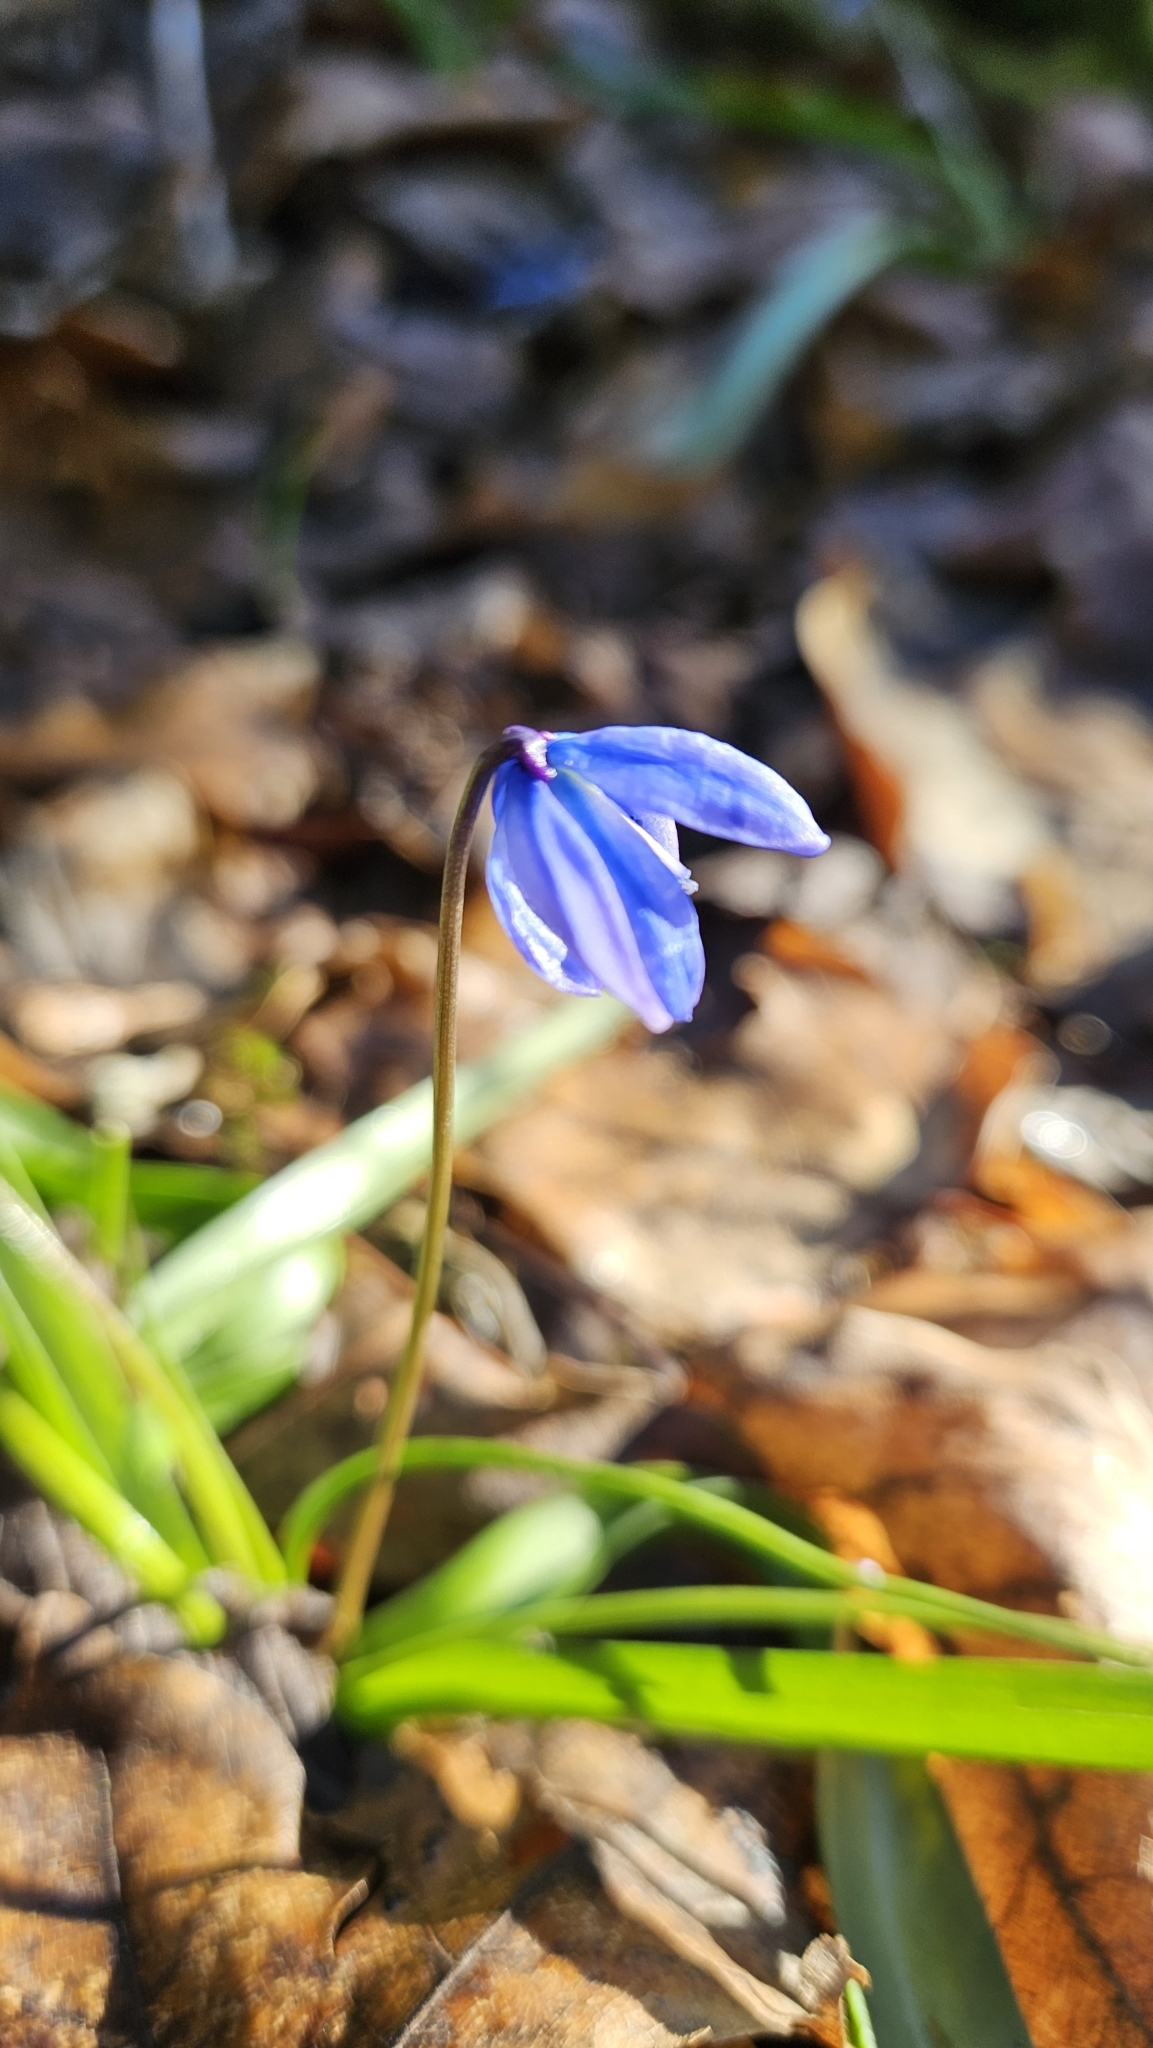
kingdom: Plantae
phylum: Tracheophyta
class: Liliopsida
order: Asparagales
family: Asparagaceae
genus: Scilla
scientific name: Scilla siberica
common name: Siberian squill
